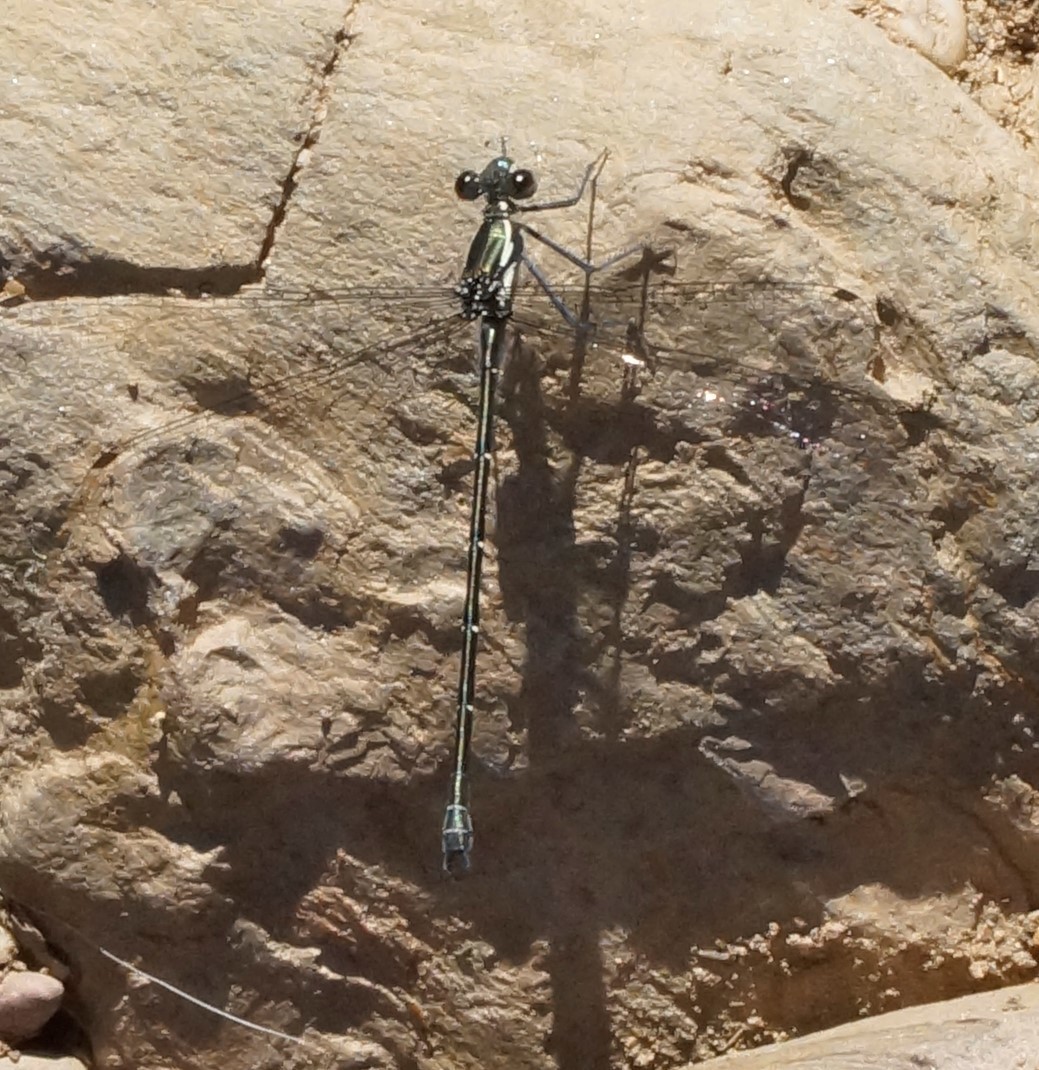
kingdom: Animalia
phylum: Arthropoda
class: Insecta
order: Odonata
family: Argiolestidae
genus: Austroargiolestes
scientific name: Austroargiolestes icteromelas
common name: Common flatwing
